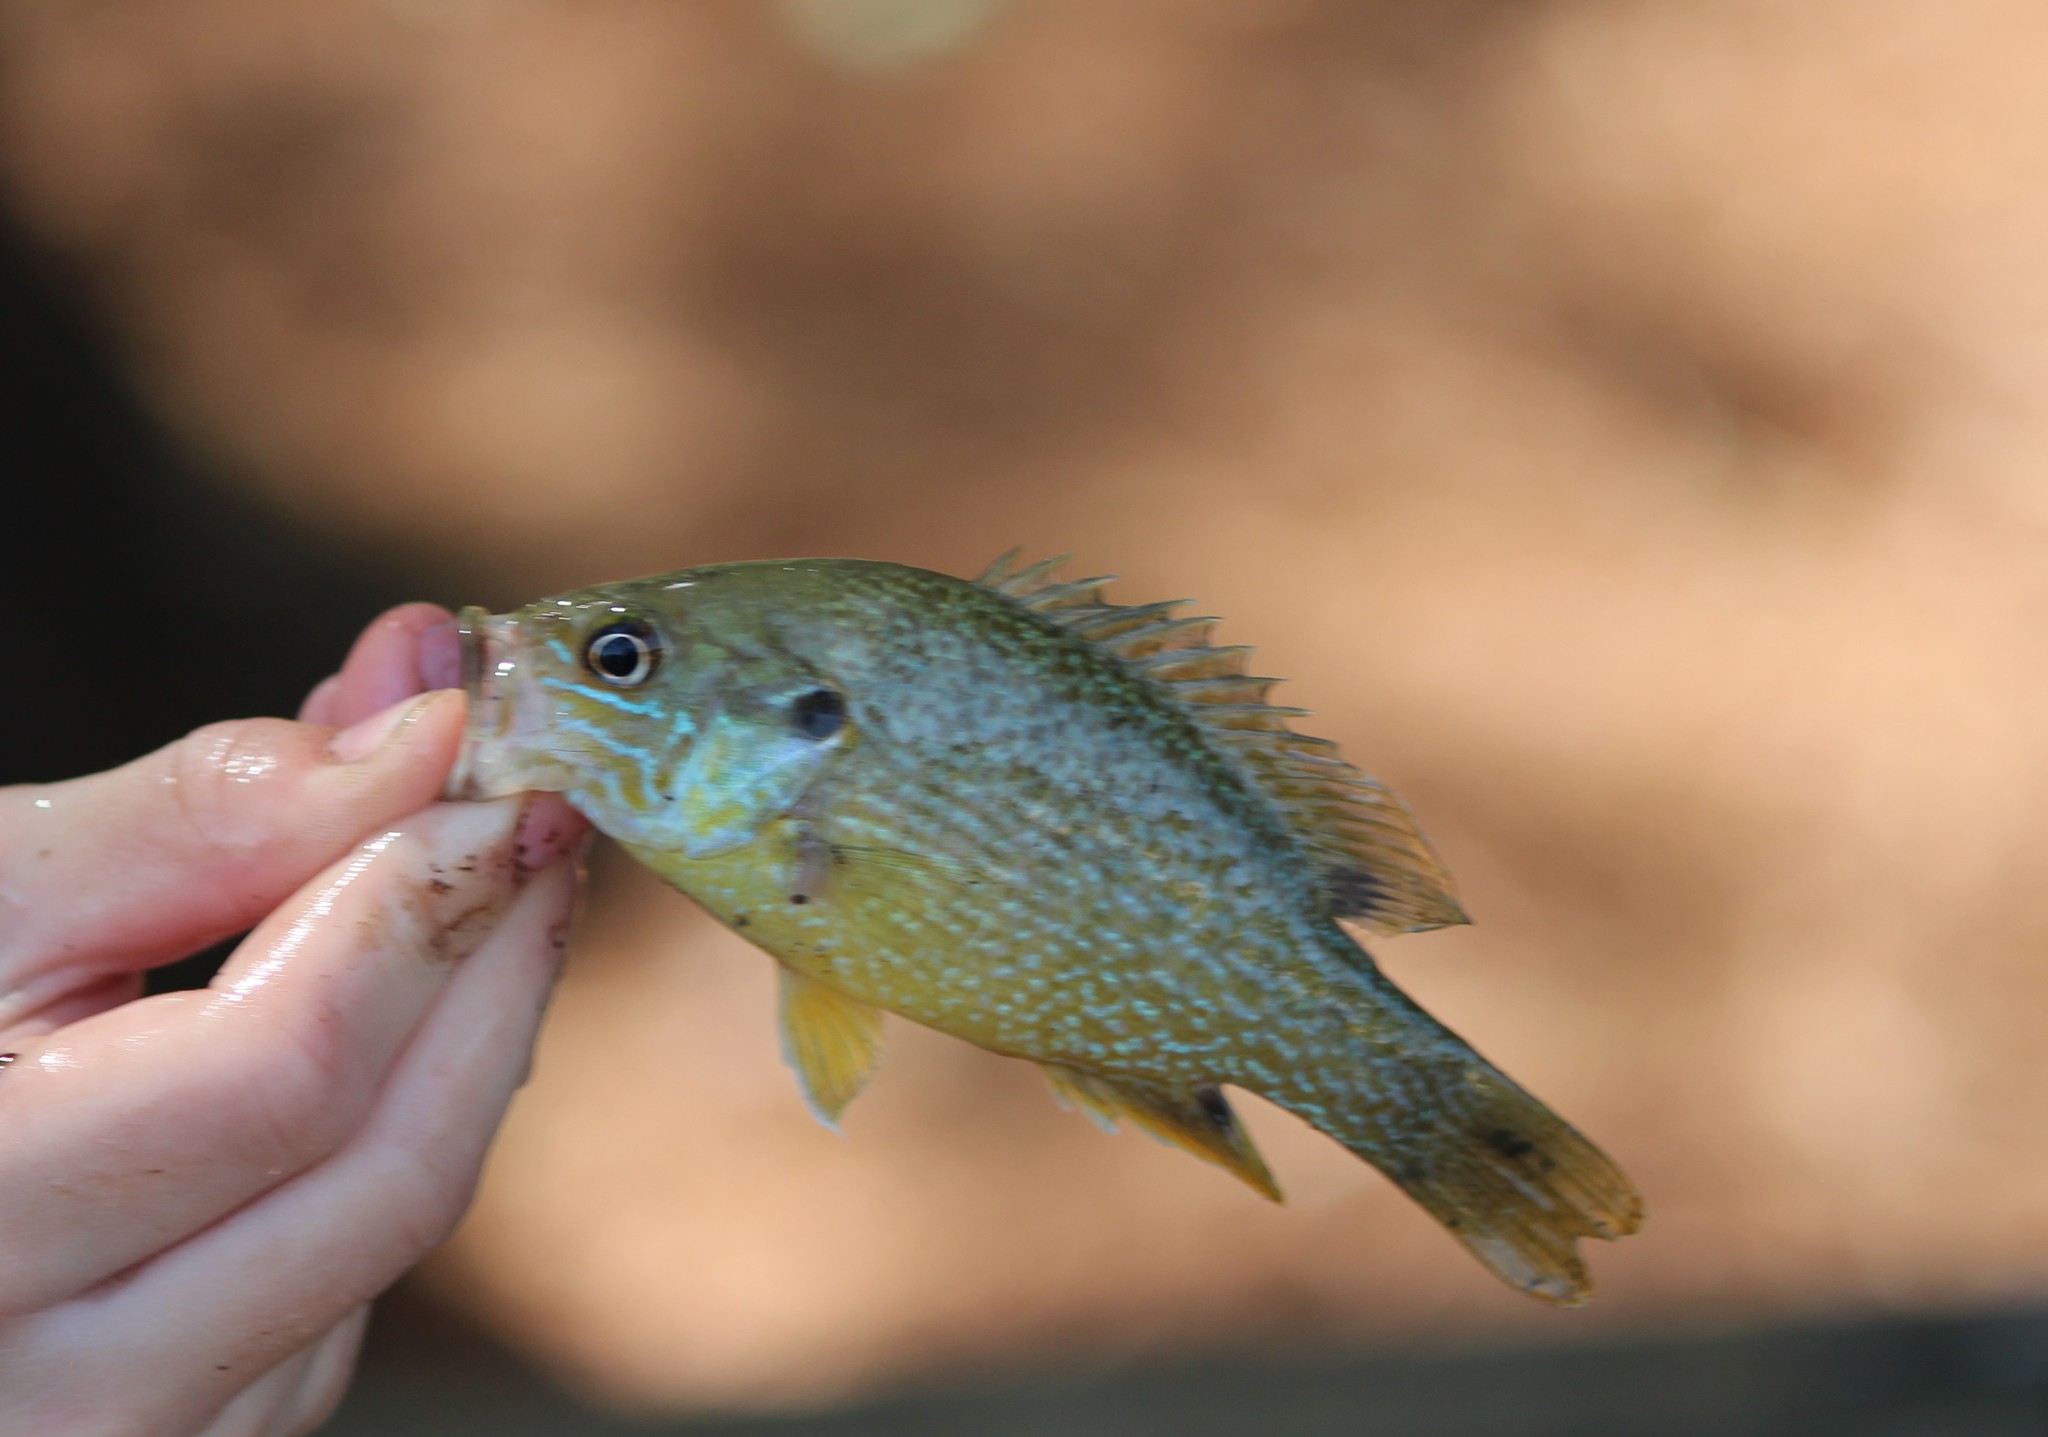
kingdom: Animalia
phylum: Chordata
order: Perciformes
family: Centrarchidae
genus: Lepomis
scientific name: Lepomis cyanellus
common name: Green sunfish
